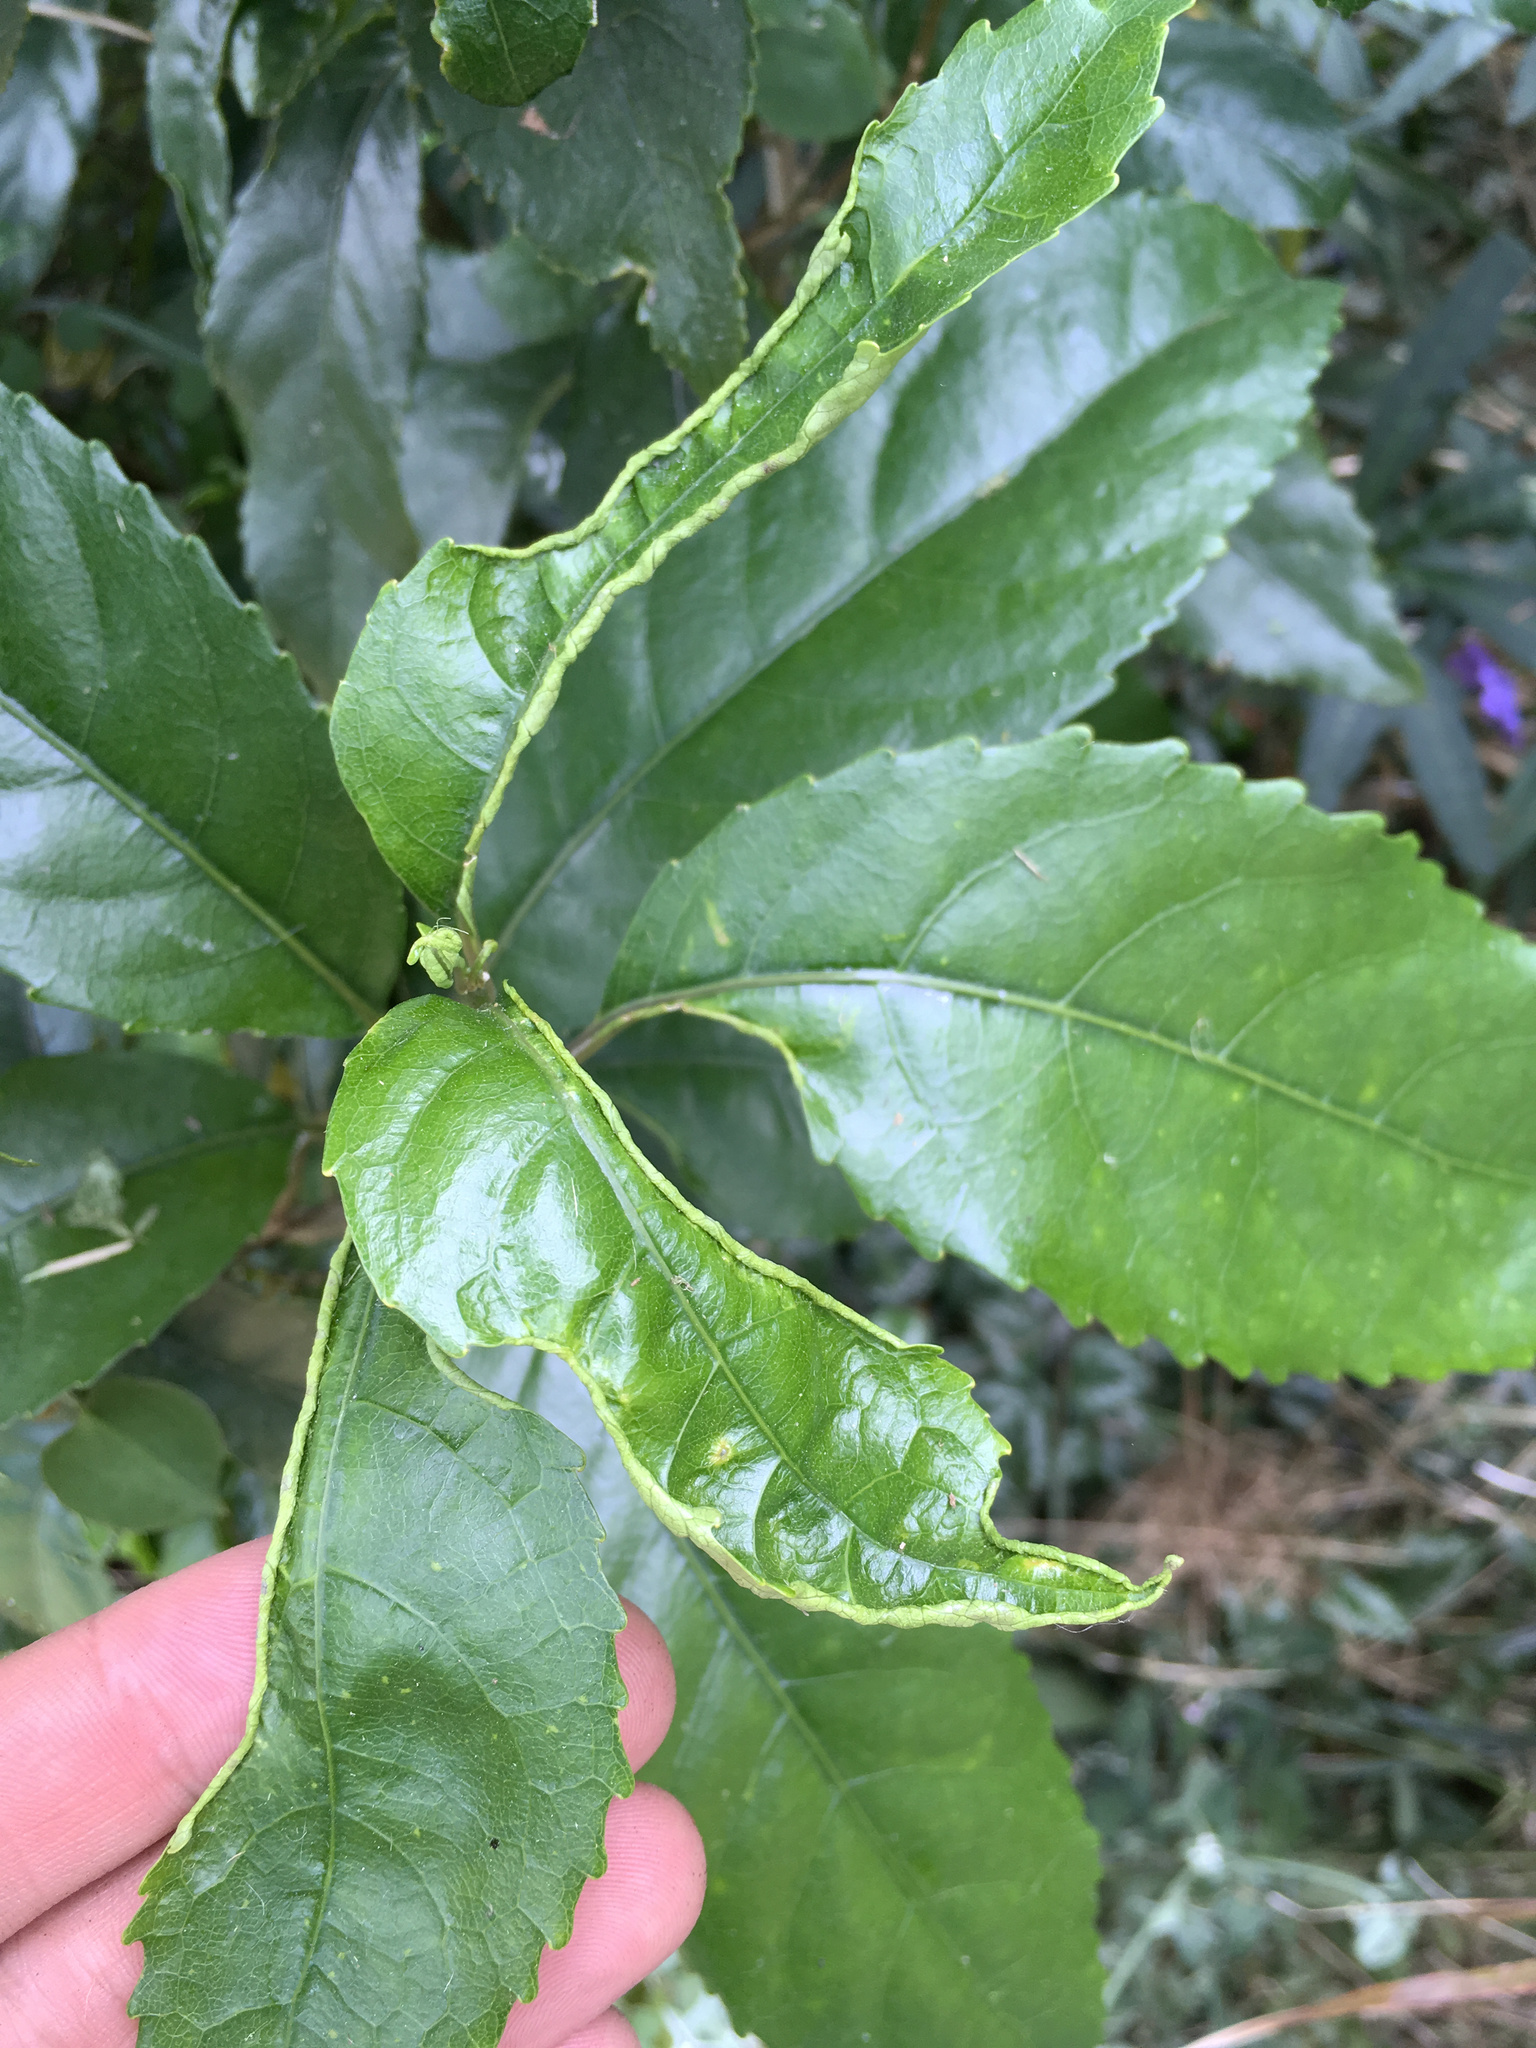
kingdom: Animalia
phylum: Arthropoda
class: Arachnida
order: Trombidiformes
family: Eriophyidae
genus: Aceria
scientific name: Aceria
